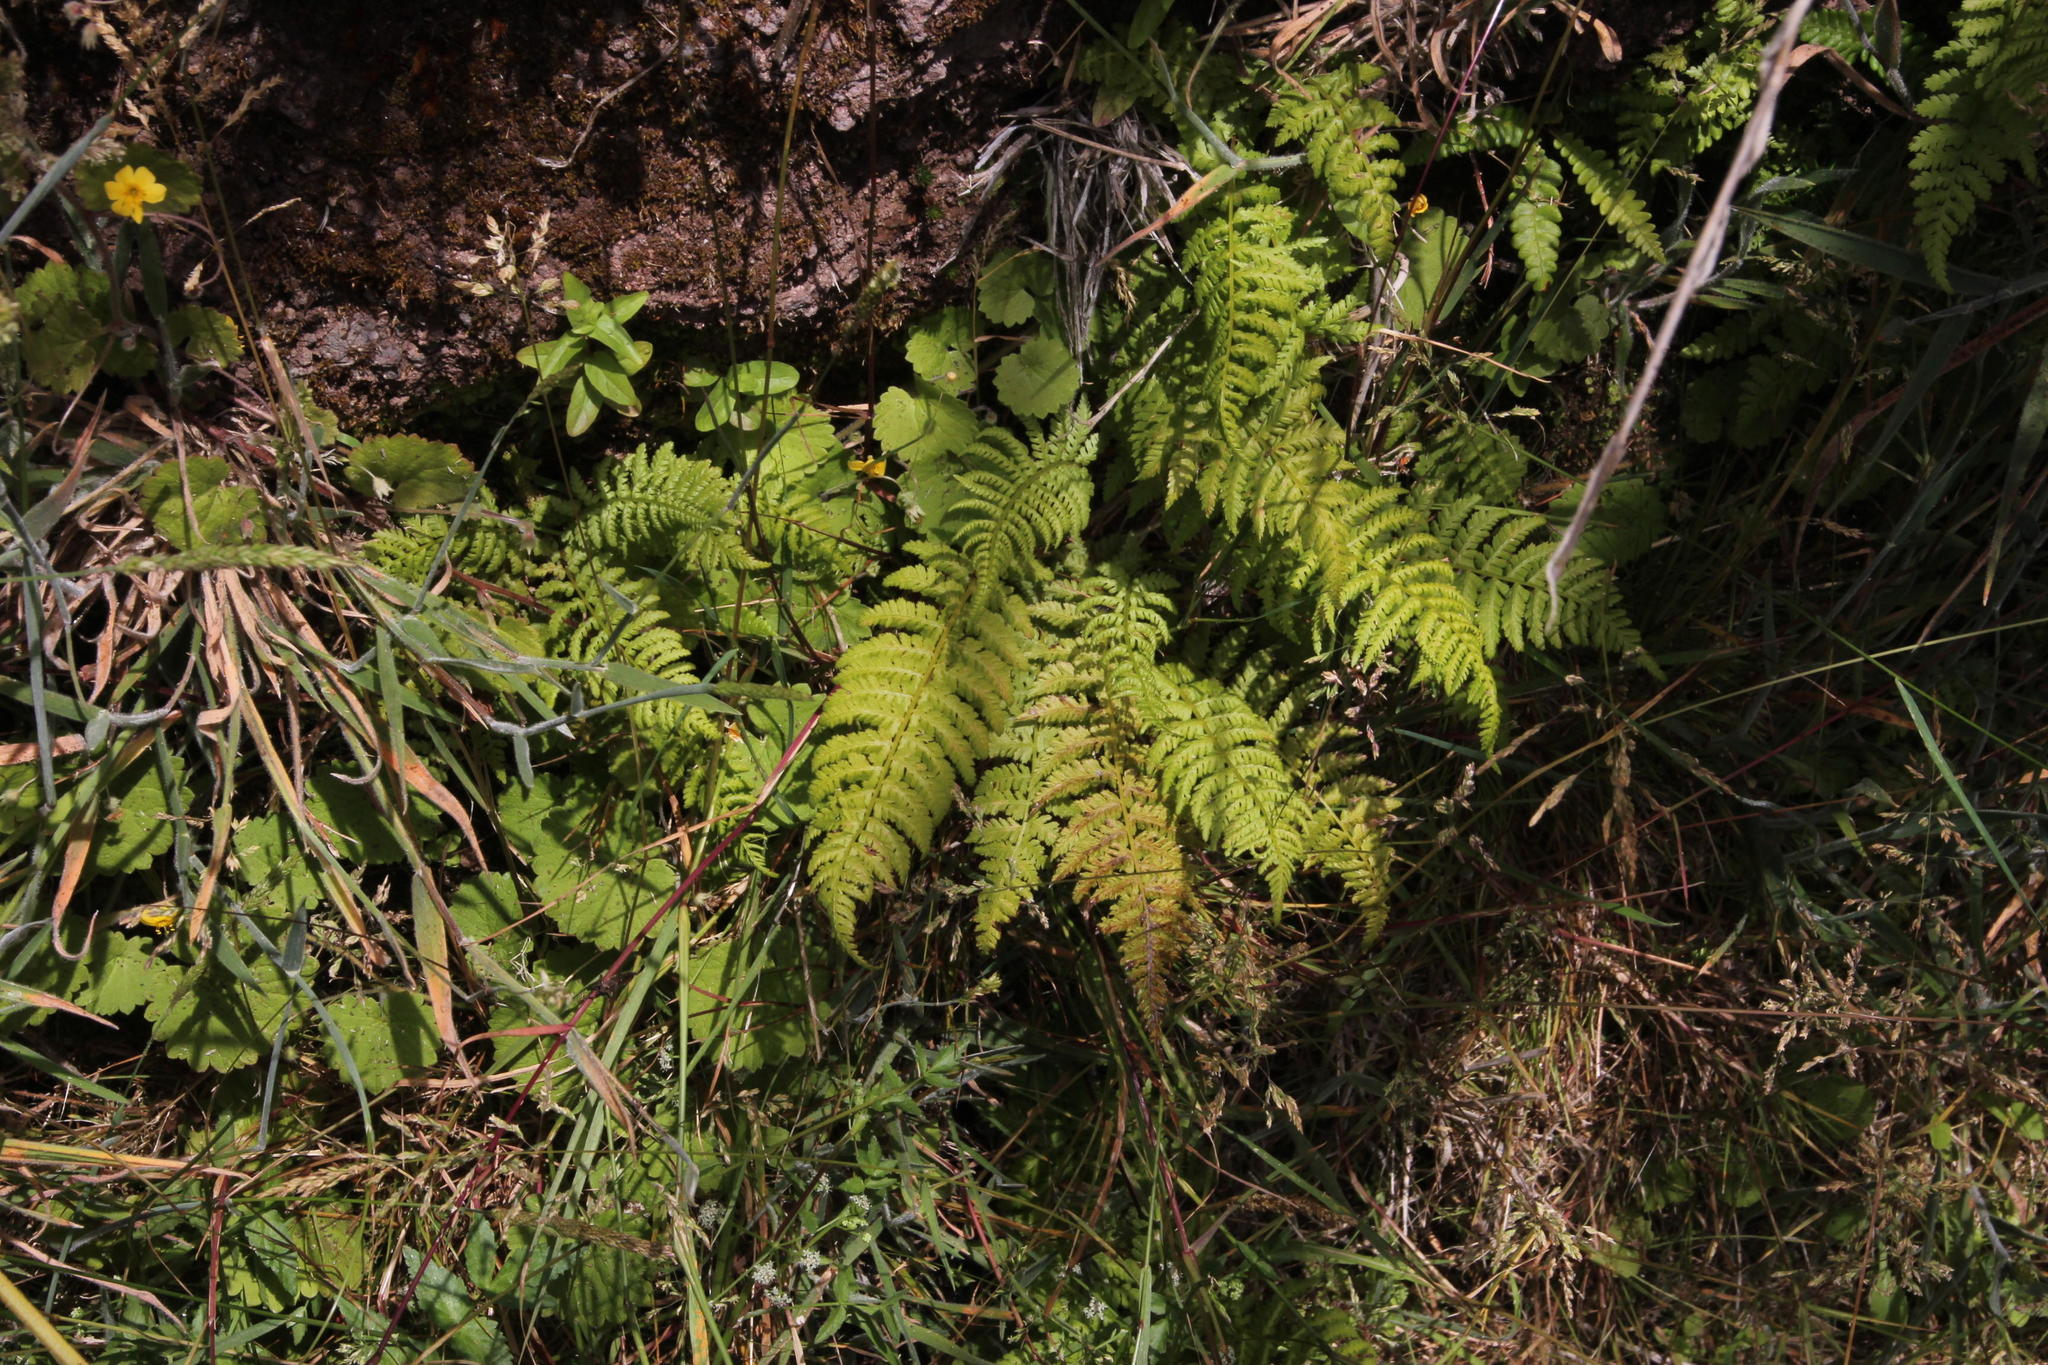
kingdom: Plantae
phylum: Tracheophyta
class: Polypodiopsida
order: Polypodiales
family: Blechnaceae
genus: Struthiopteris
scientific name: Struthiopteris spicant
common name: Deer fern
